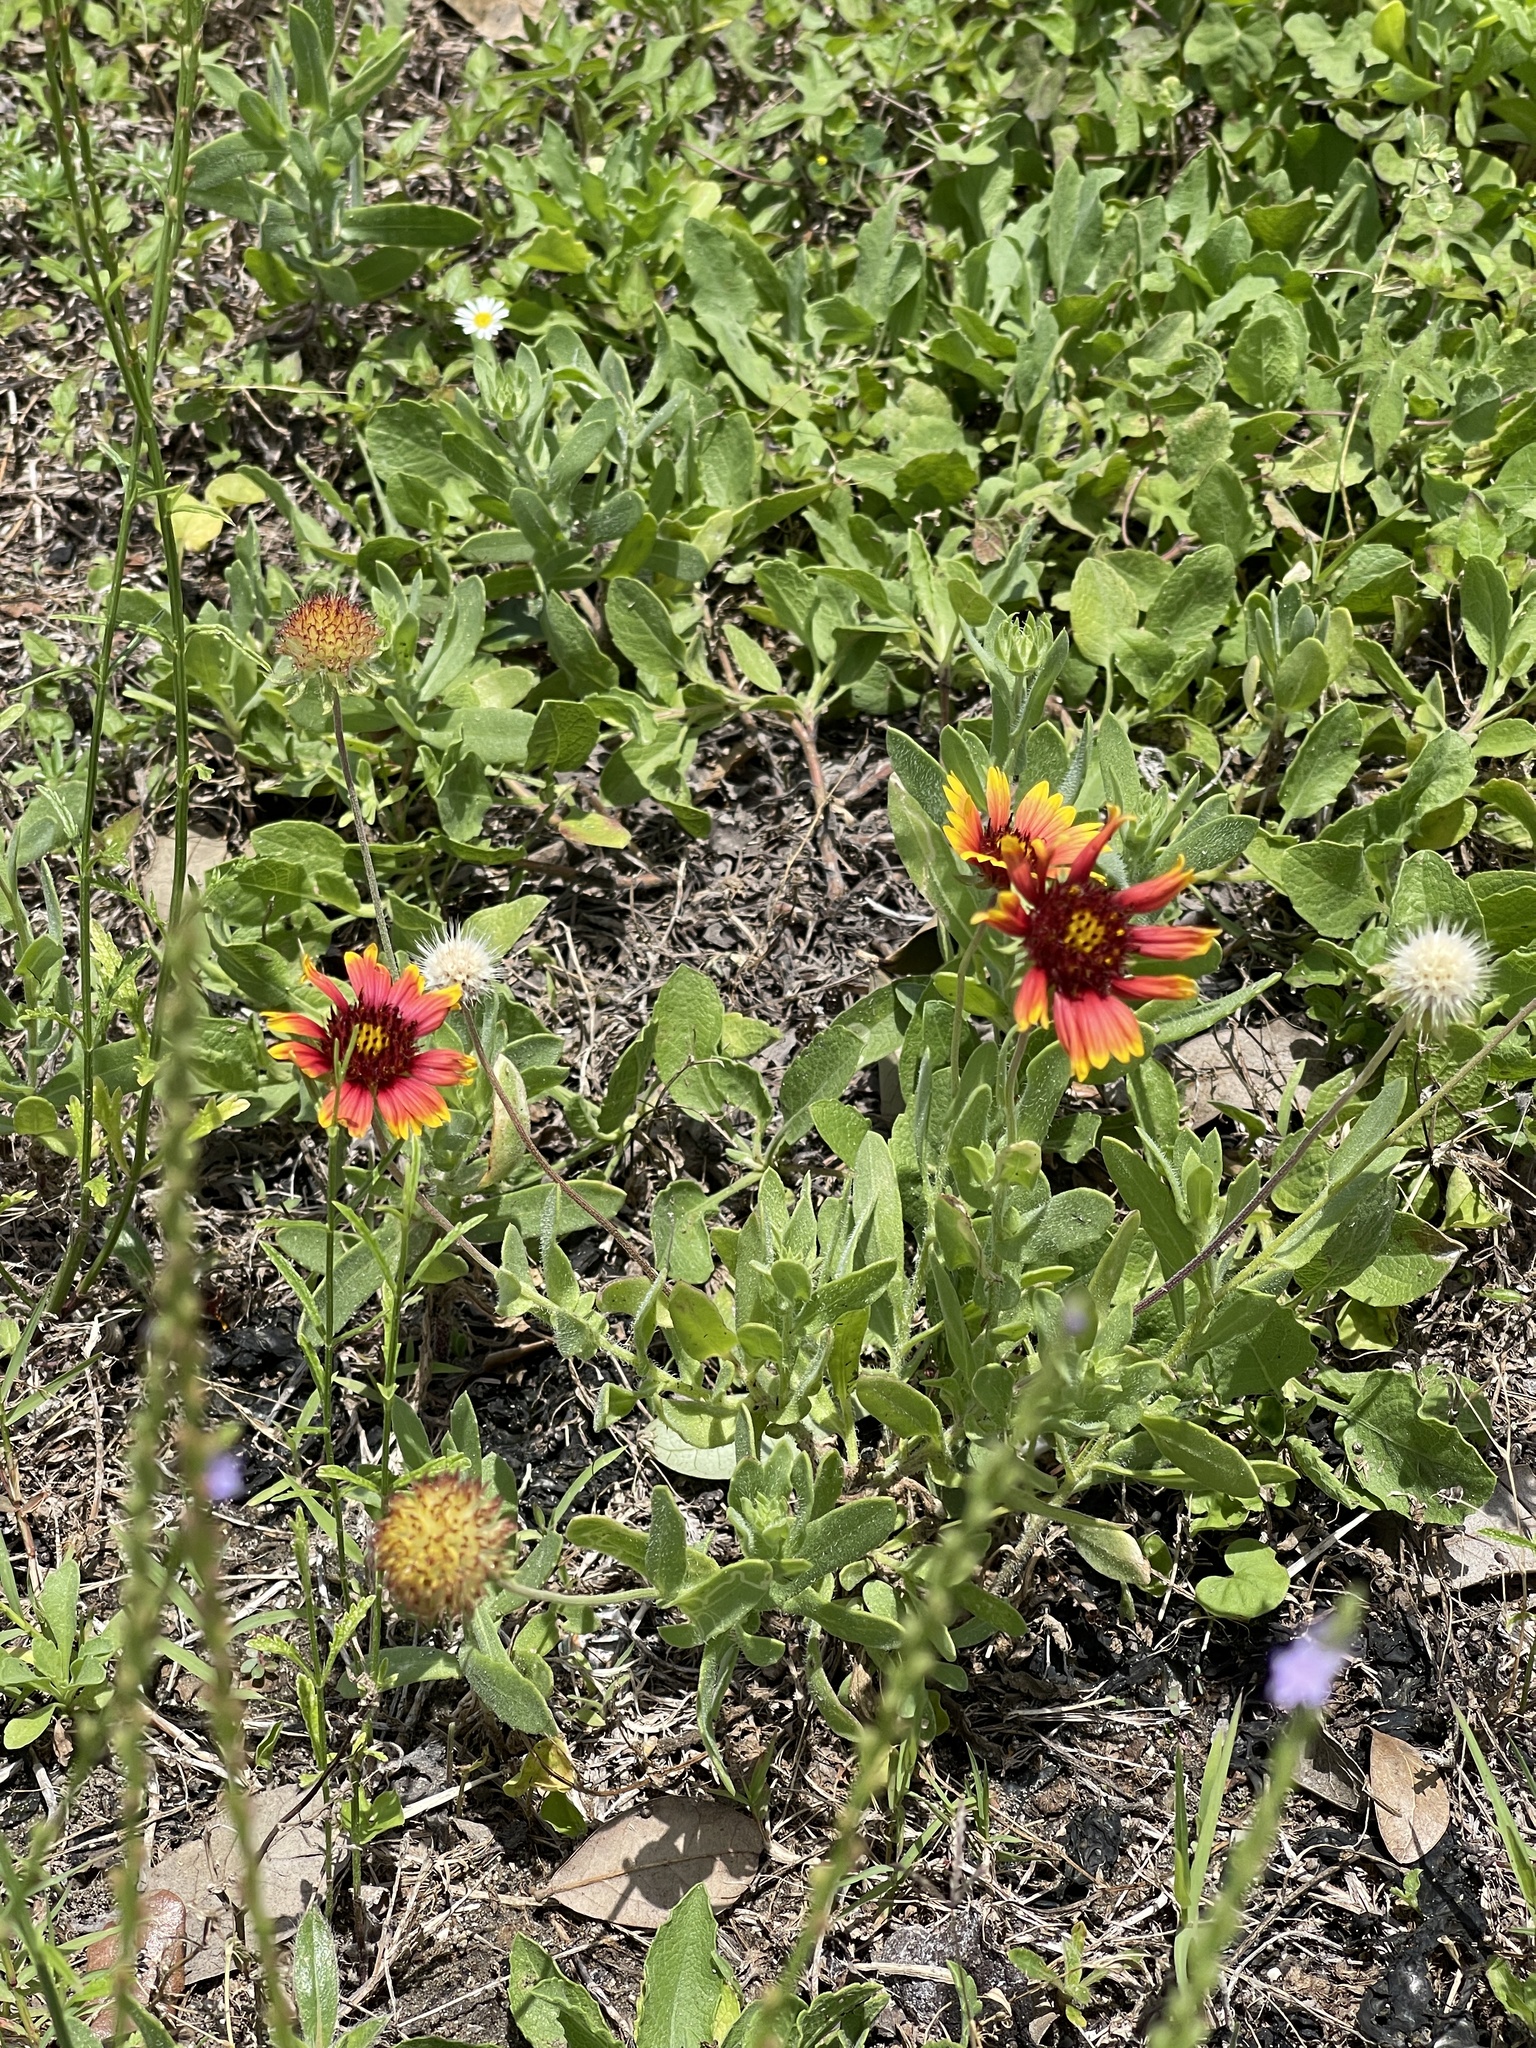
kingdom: Plantae
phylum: Tracheophyta
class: Magnoliopsida
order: Asterales
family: Asteraceae
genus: Gaillardia
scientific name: Gaillardia pulchella
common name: Firewheel
